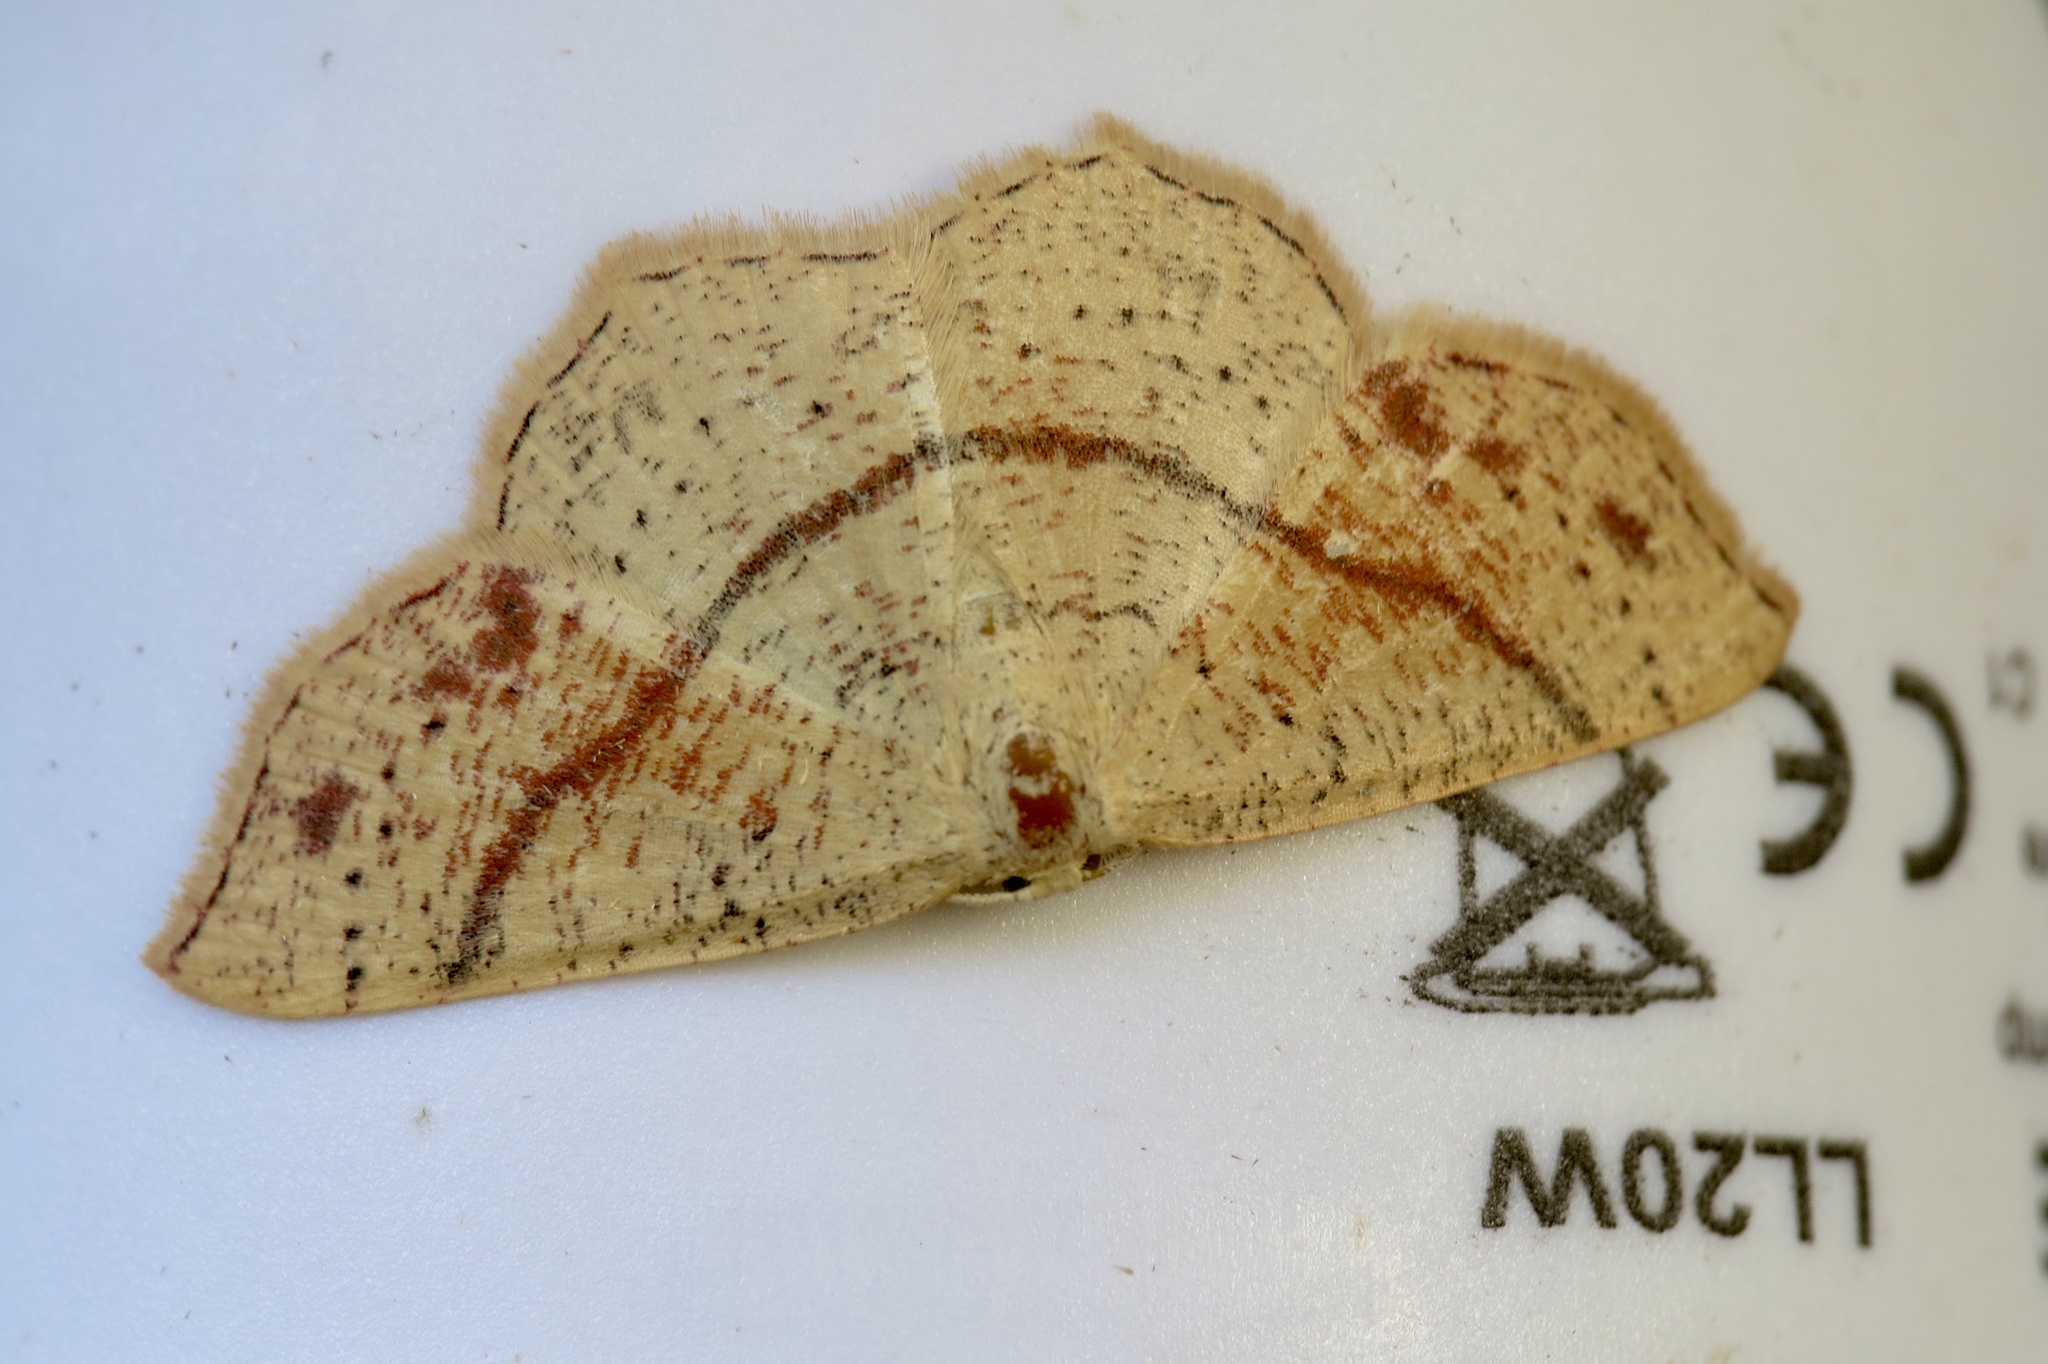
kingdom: Animalia
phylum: Arthropoda
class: Insecta
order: Lepidoptera
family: Geometridae
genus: Cyclophora
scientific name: Cyclophora punctaria
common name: Maiden's blush
